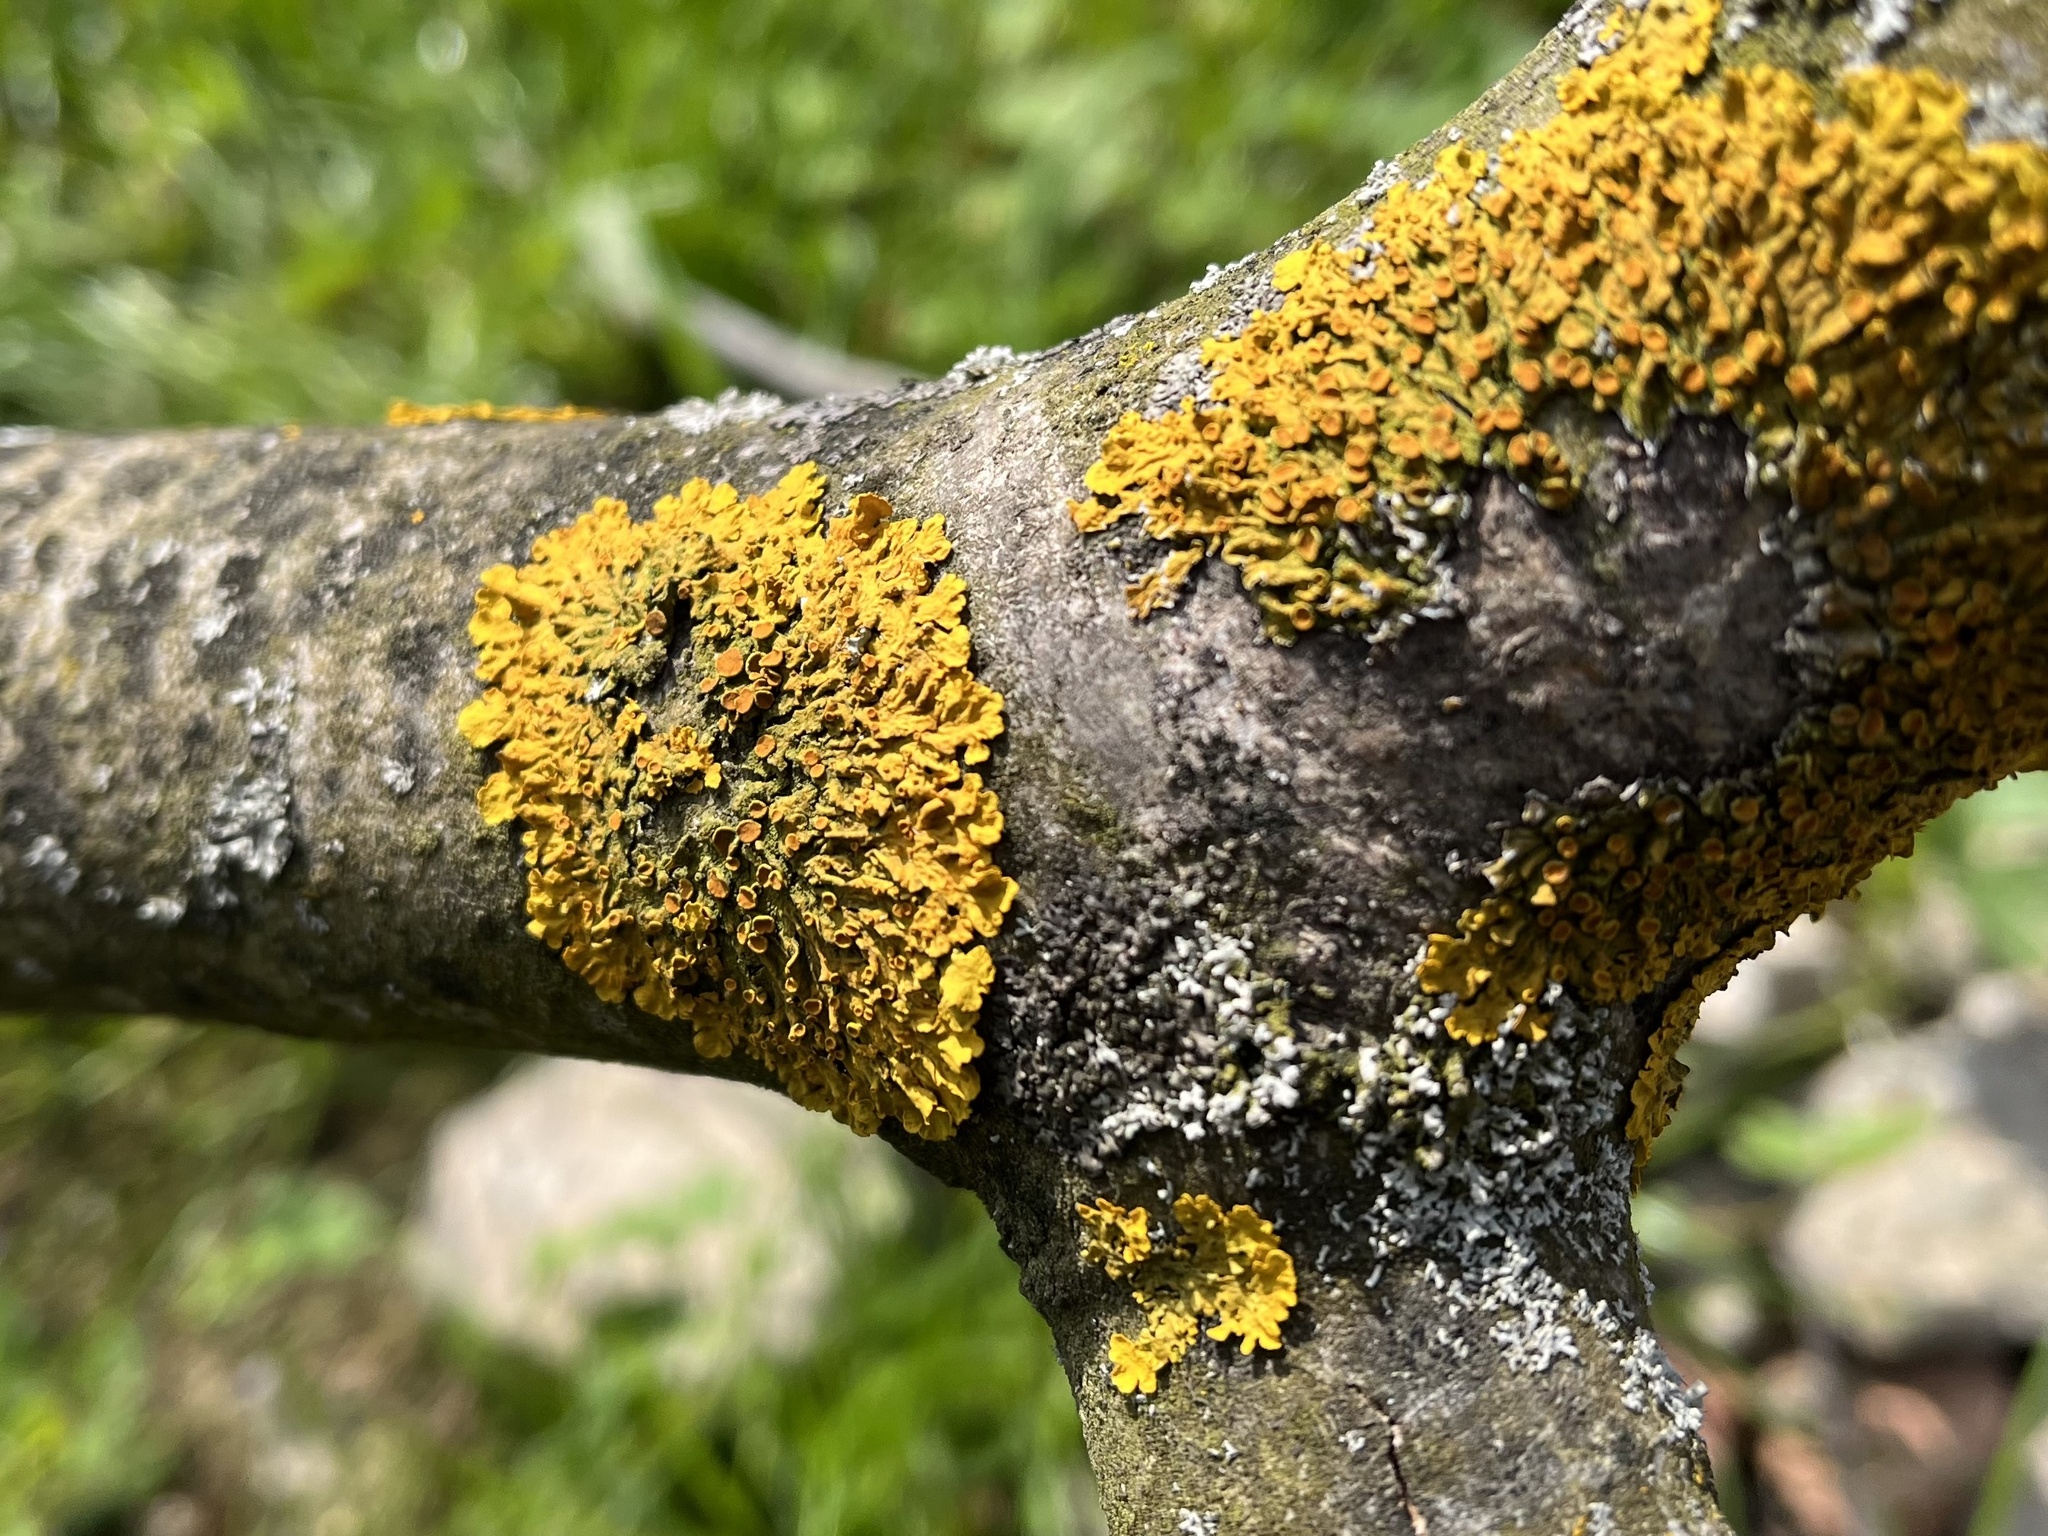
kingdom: Fungi
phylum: Ascomycota
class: Lecanoromycetes
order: Teloschistales
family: Teloschistaceae
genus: Xanthoria
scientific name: Xanthoria parietina
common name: Common orange lichen
